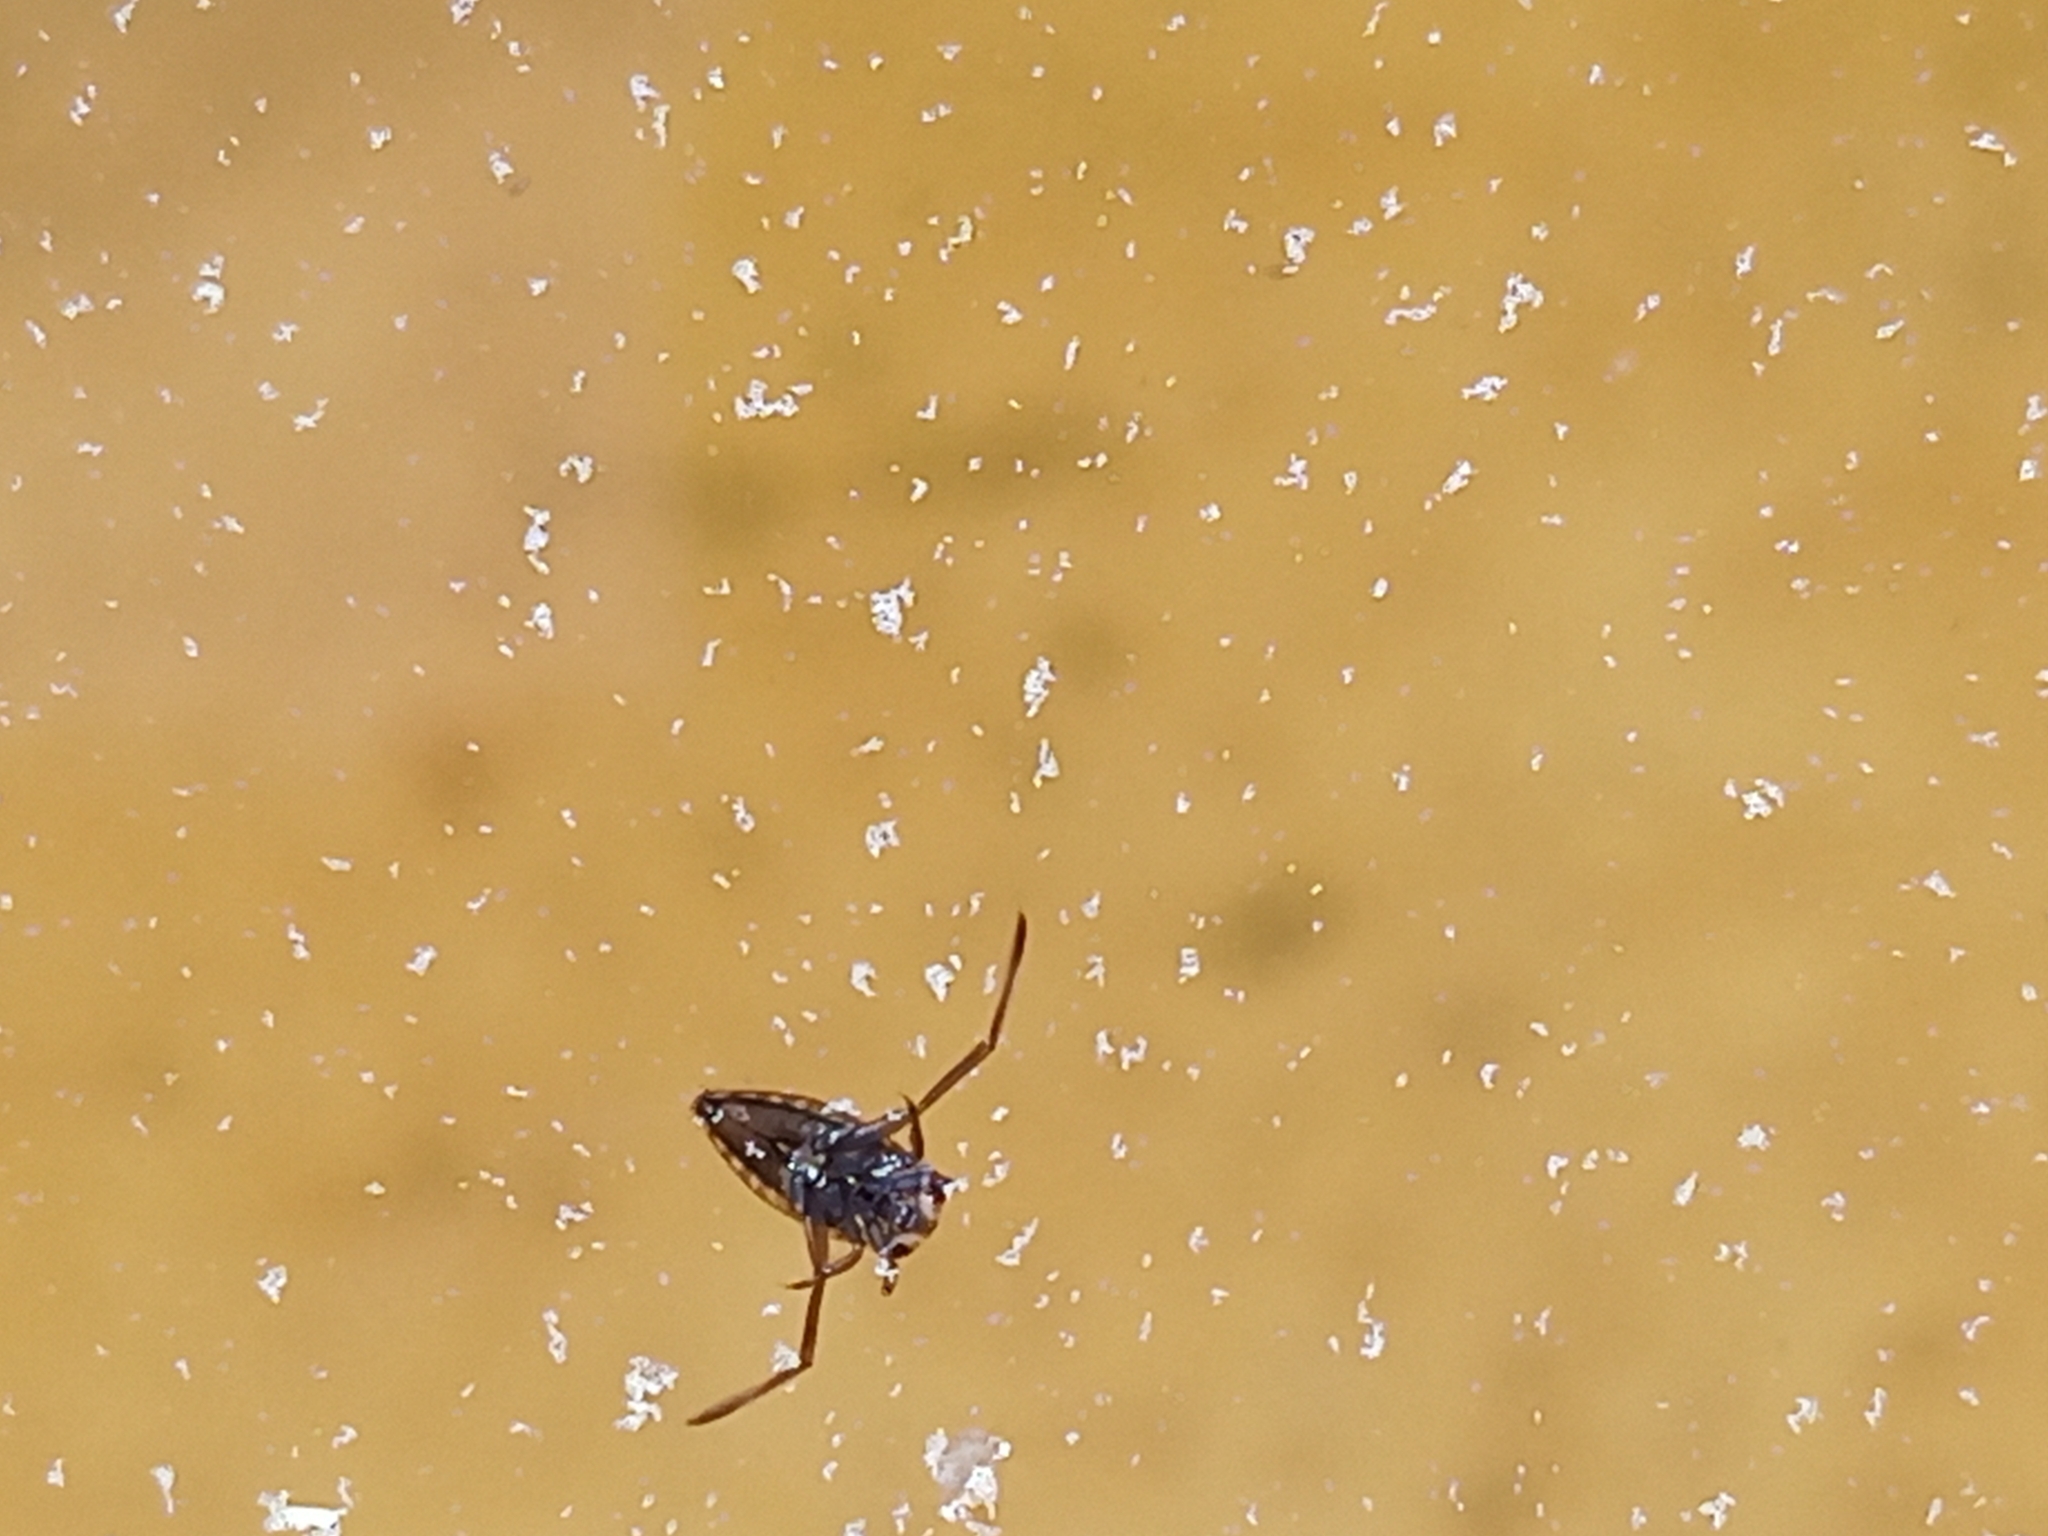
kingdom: Animalia
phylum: Arthropoda
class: Insecta
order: Hemiptera
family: Notonectidae
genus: Notonecta
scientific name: Notonecta
